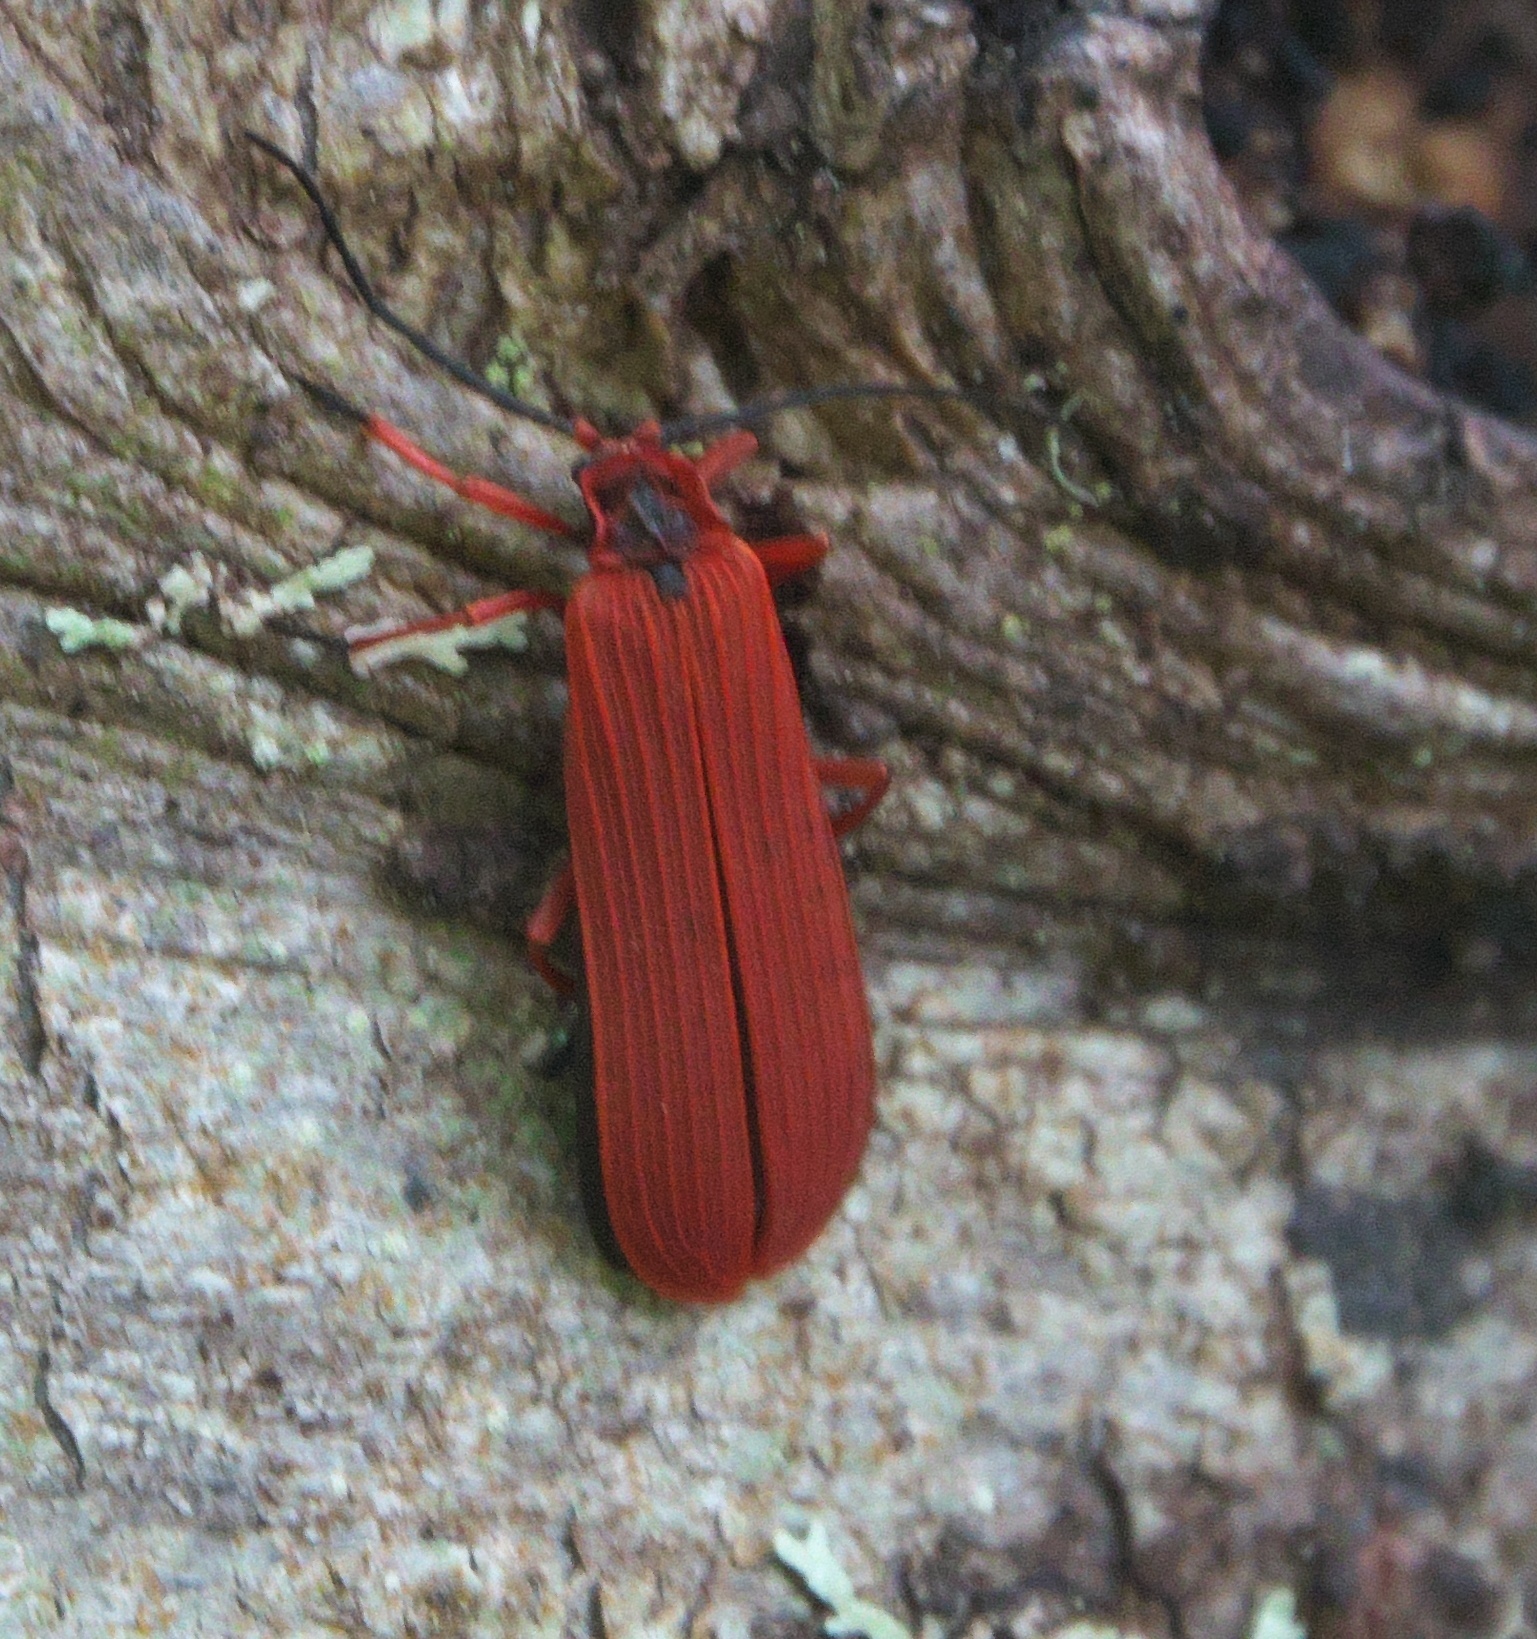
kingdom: Animalia
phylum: Arthropoda
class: Insecta
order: Coleoptera
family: Lycidae
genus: Dictyoptera
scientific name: Dictyoptera simplicipes
